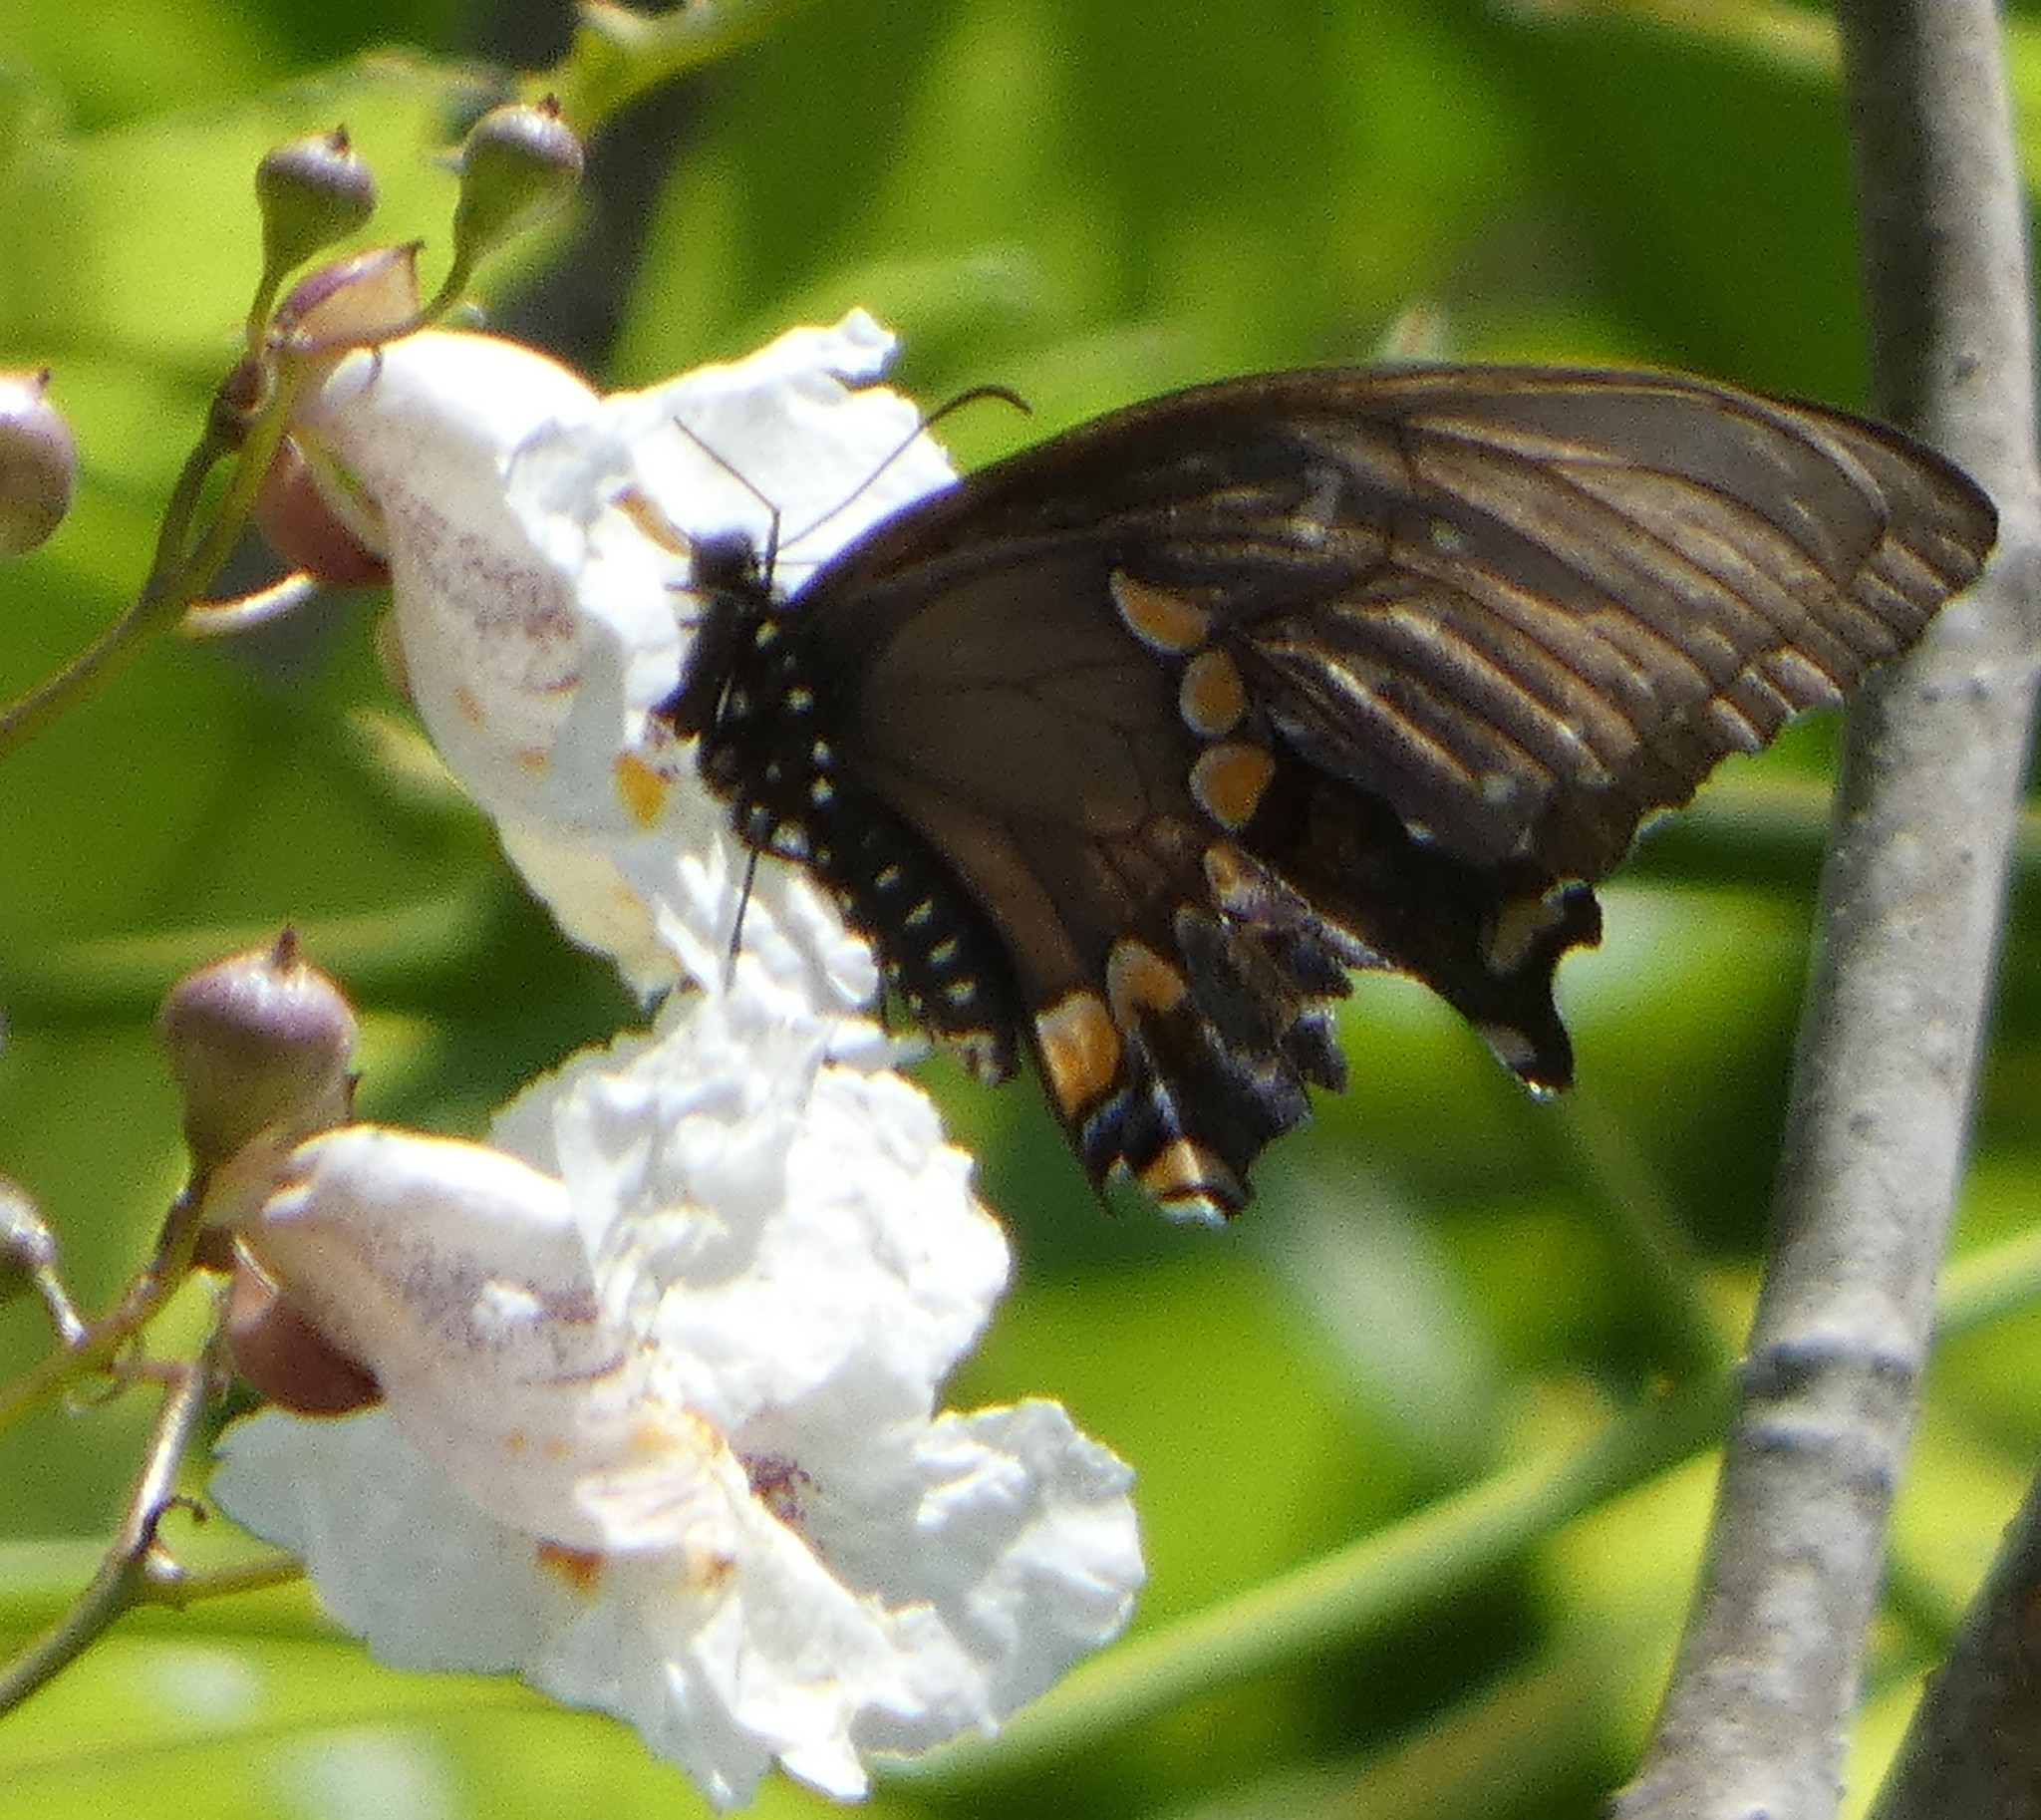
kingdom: Animalia
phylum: Arthropoda
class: Insecta
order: Lepidoptera
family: Papilionidae
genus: Papilio
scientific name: Papilio troilus
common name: Spicebush swallowtail
